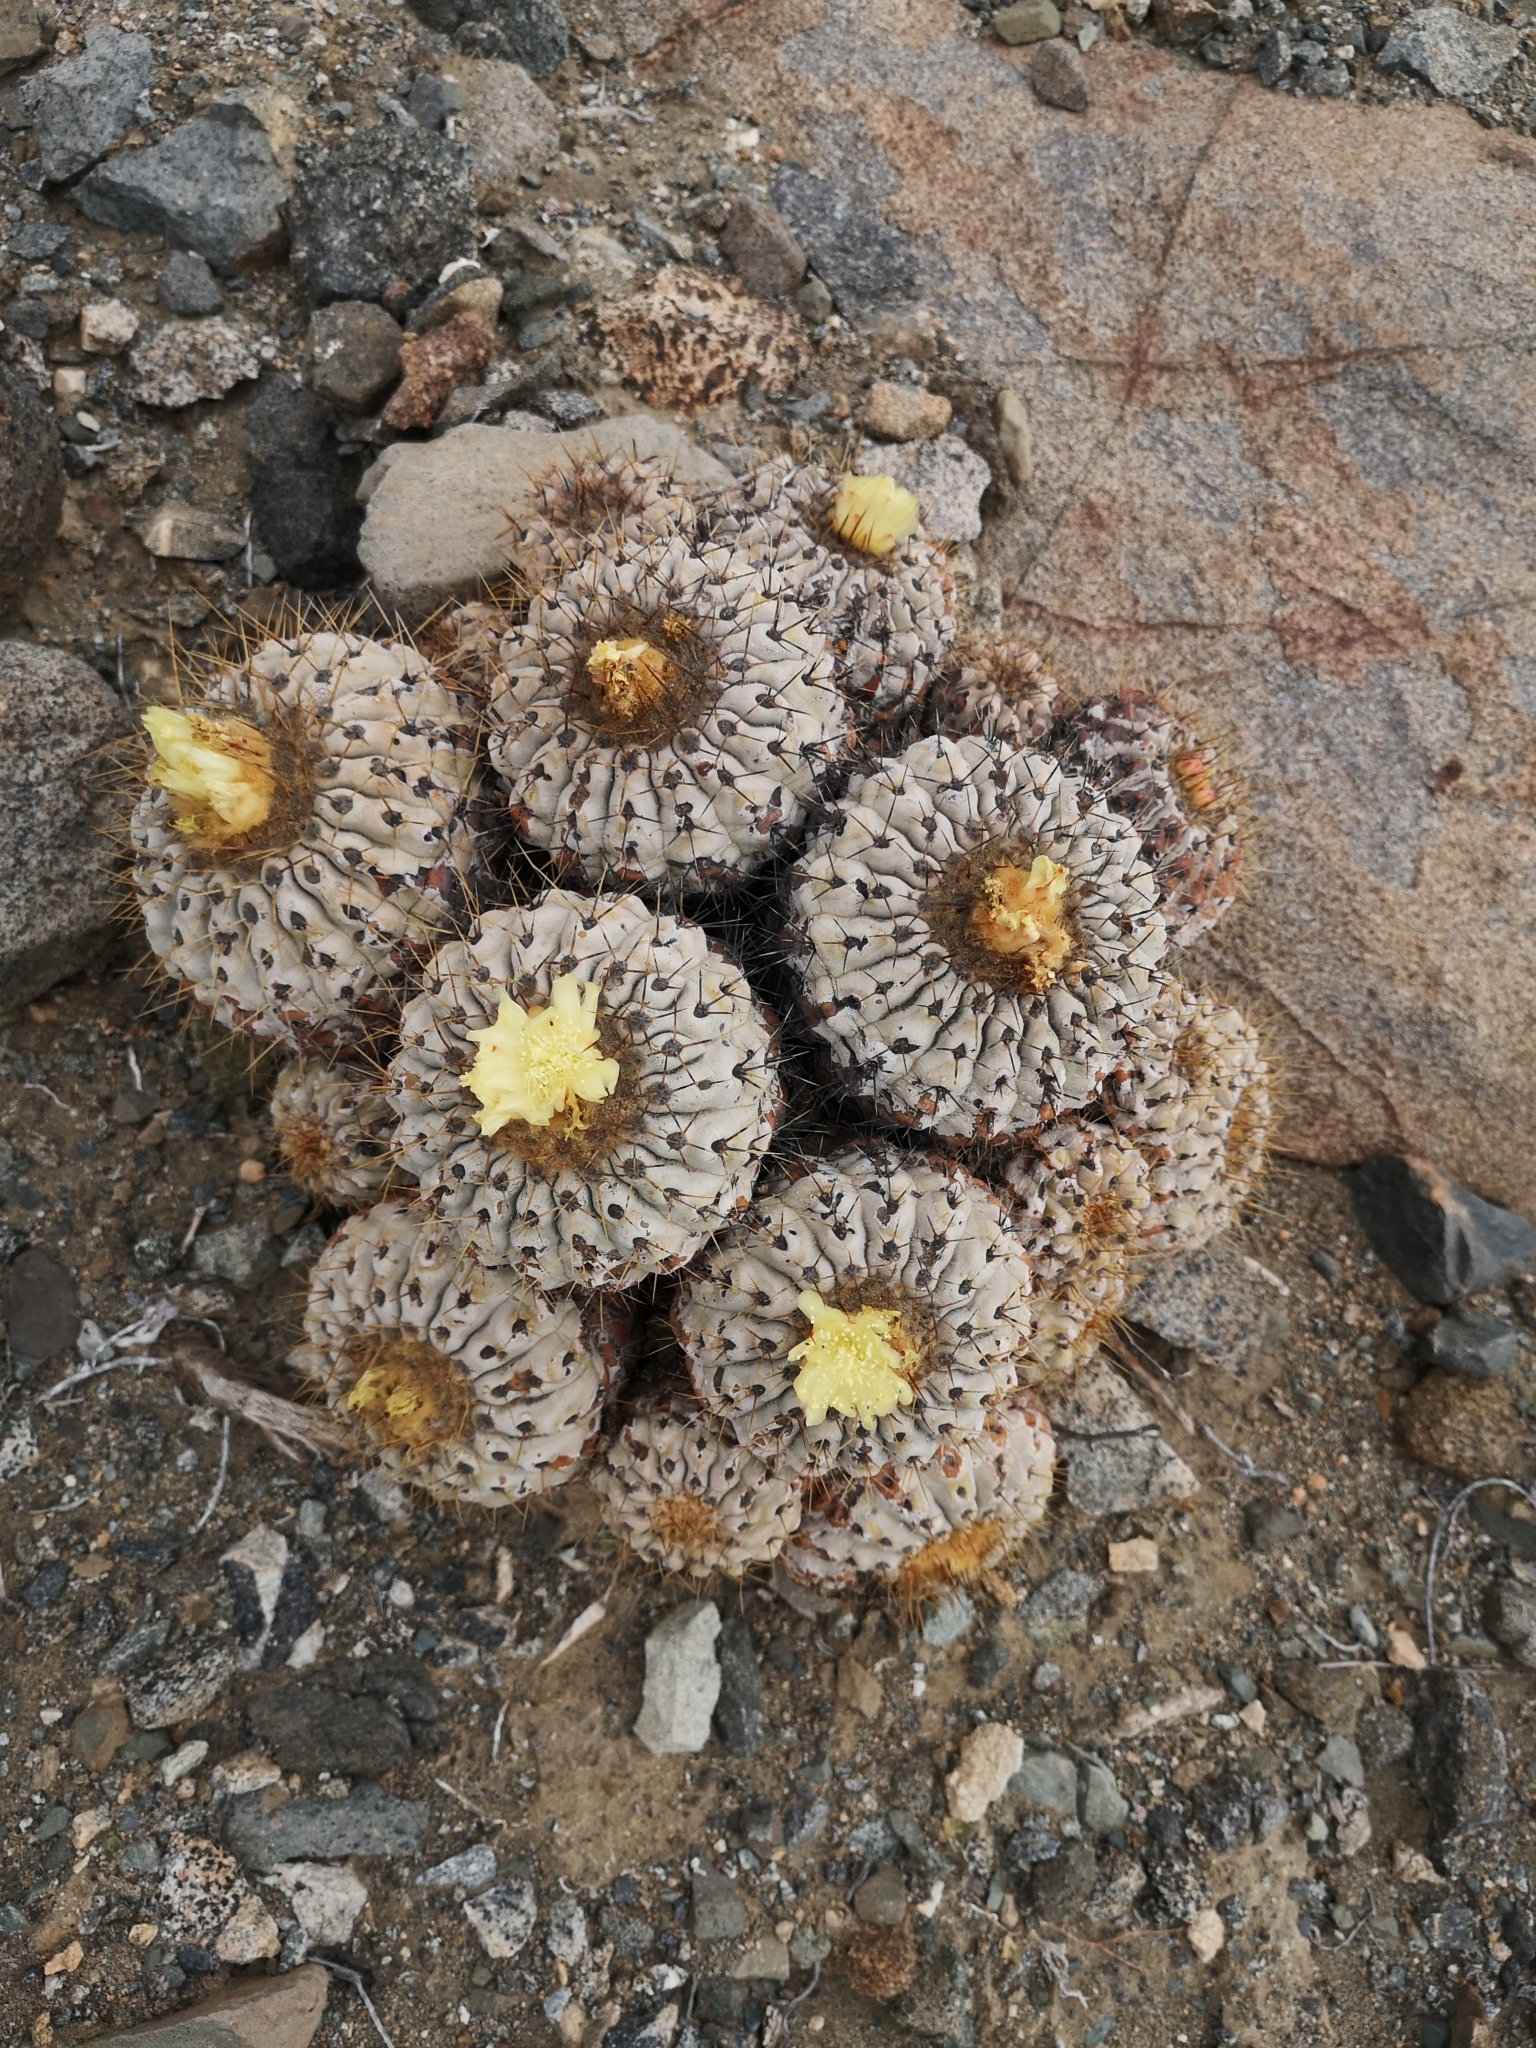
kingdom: Plantae
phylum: Tracheophyta
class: Magnoliopsida
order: Caryophyllales
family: Cactaceae
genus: Copiapoa
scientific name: Copiapoa gigantea
